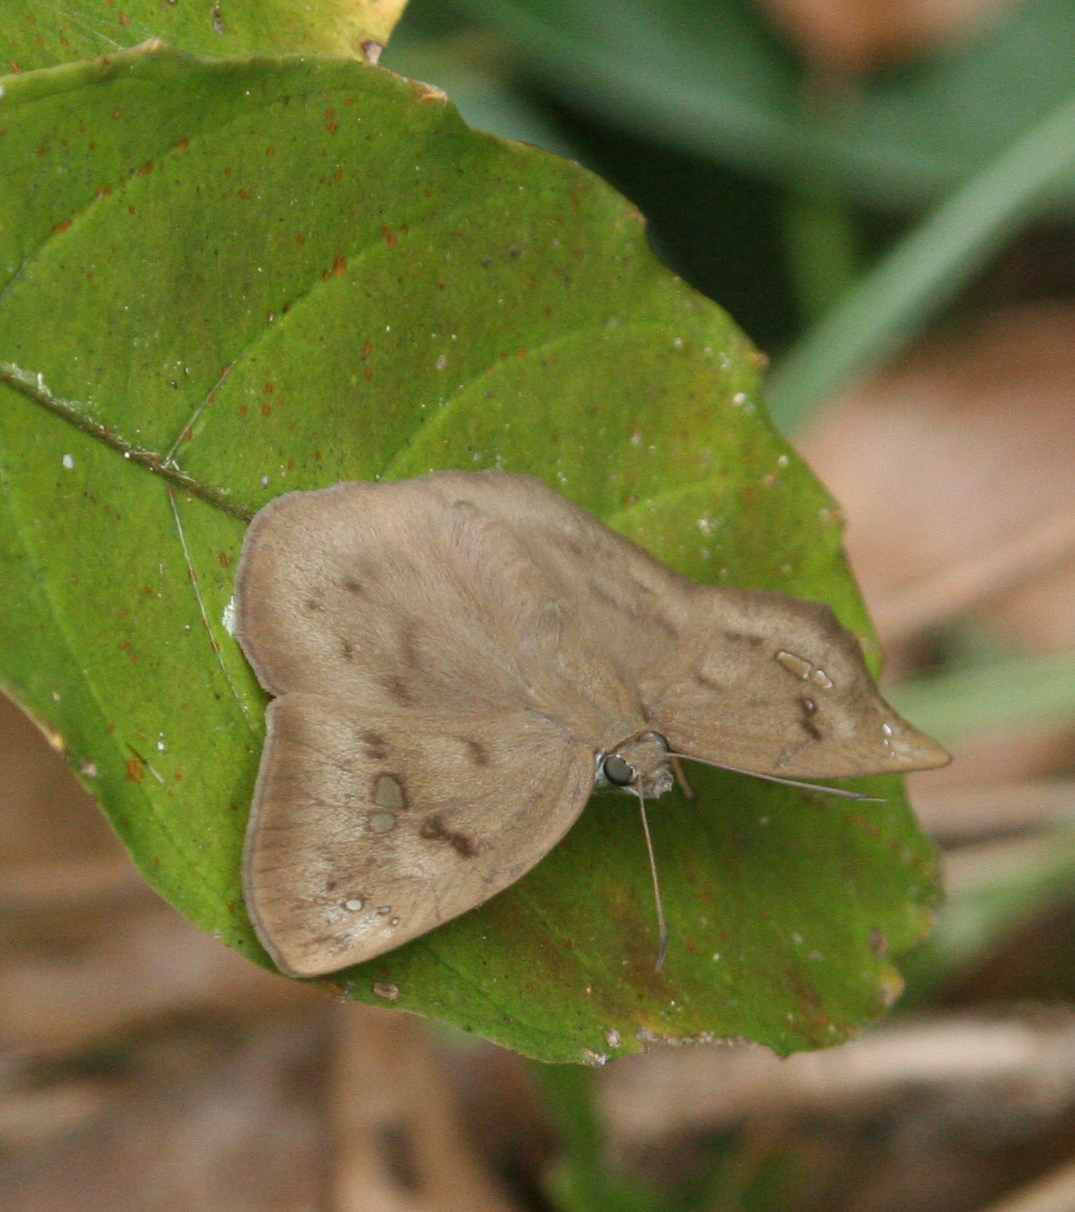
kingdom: Animalia
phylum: Arthropoda
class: Insecta
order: Lepidoptera
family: Hesperiidae
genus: Tagiades
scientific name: Tagiades japetus
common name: Pied flat
